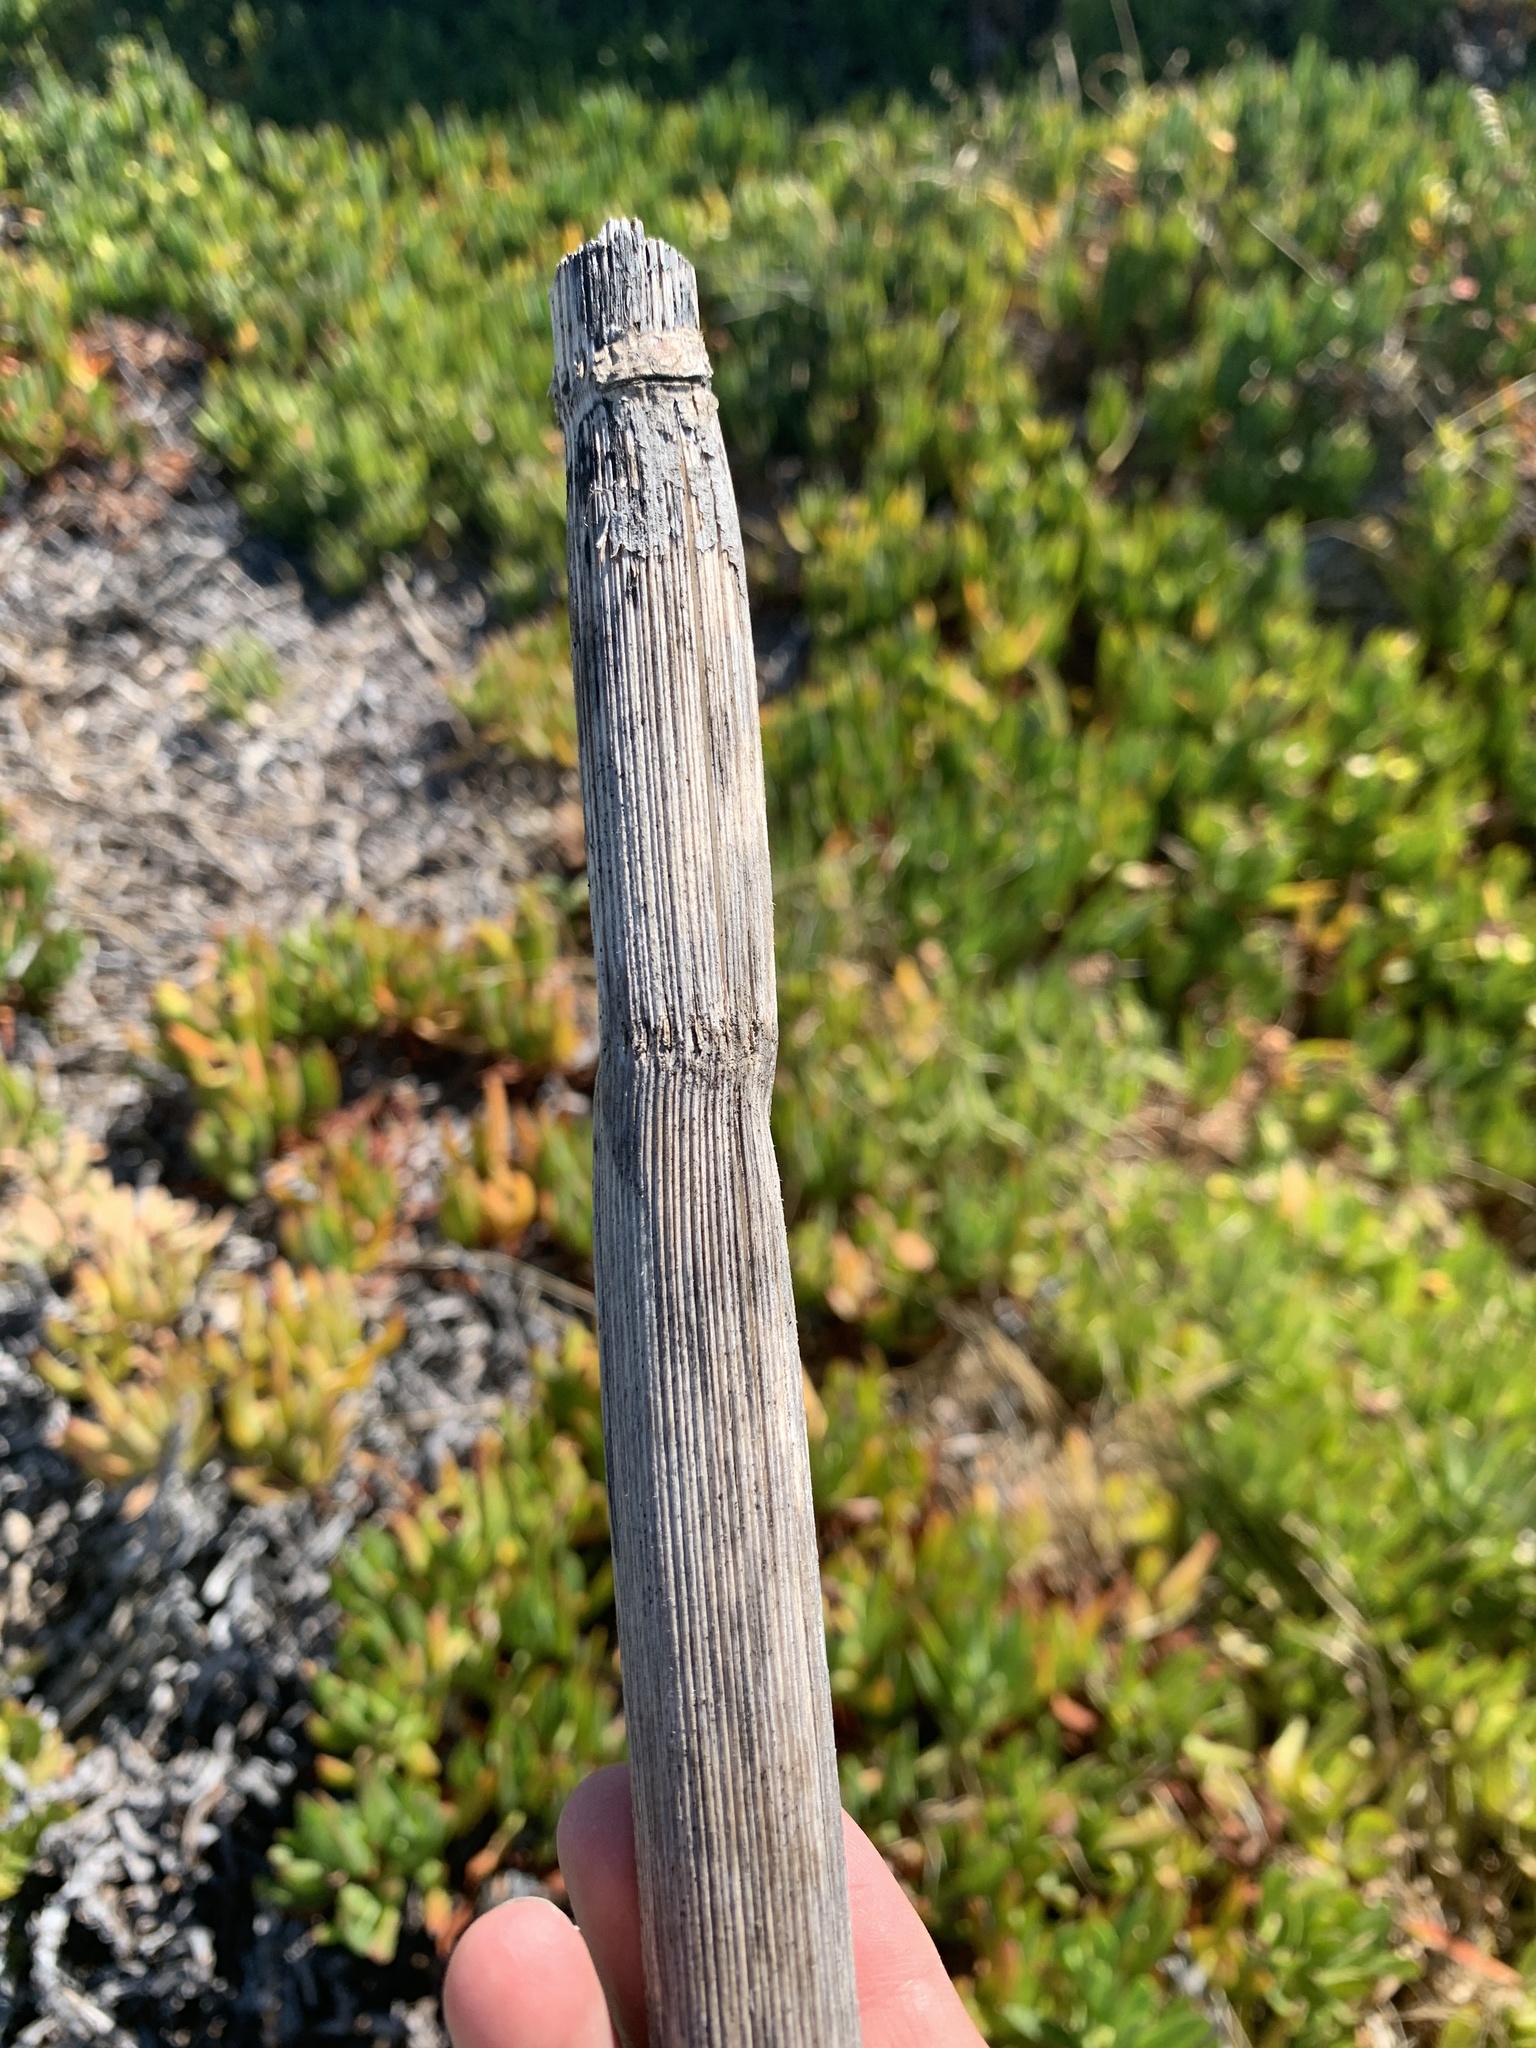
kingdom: Plantae
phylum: Tracheophyta
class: Magnoliopsida
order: Apiales
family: Apiaceae
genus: Foeniculum
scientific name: Foeniculum vulgare
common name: Fennel
